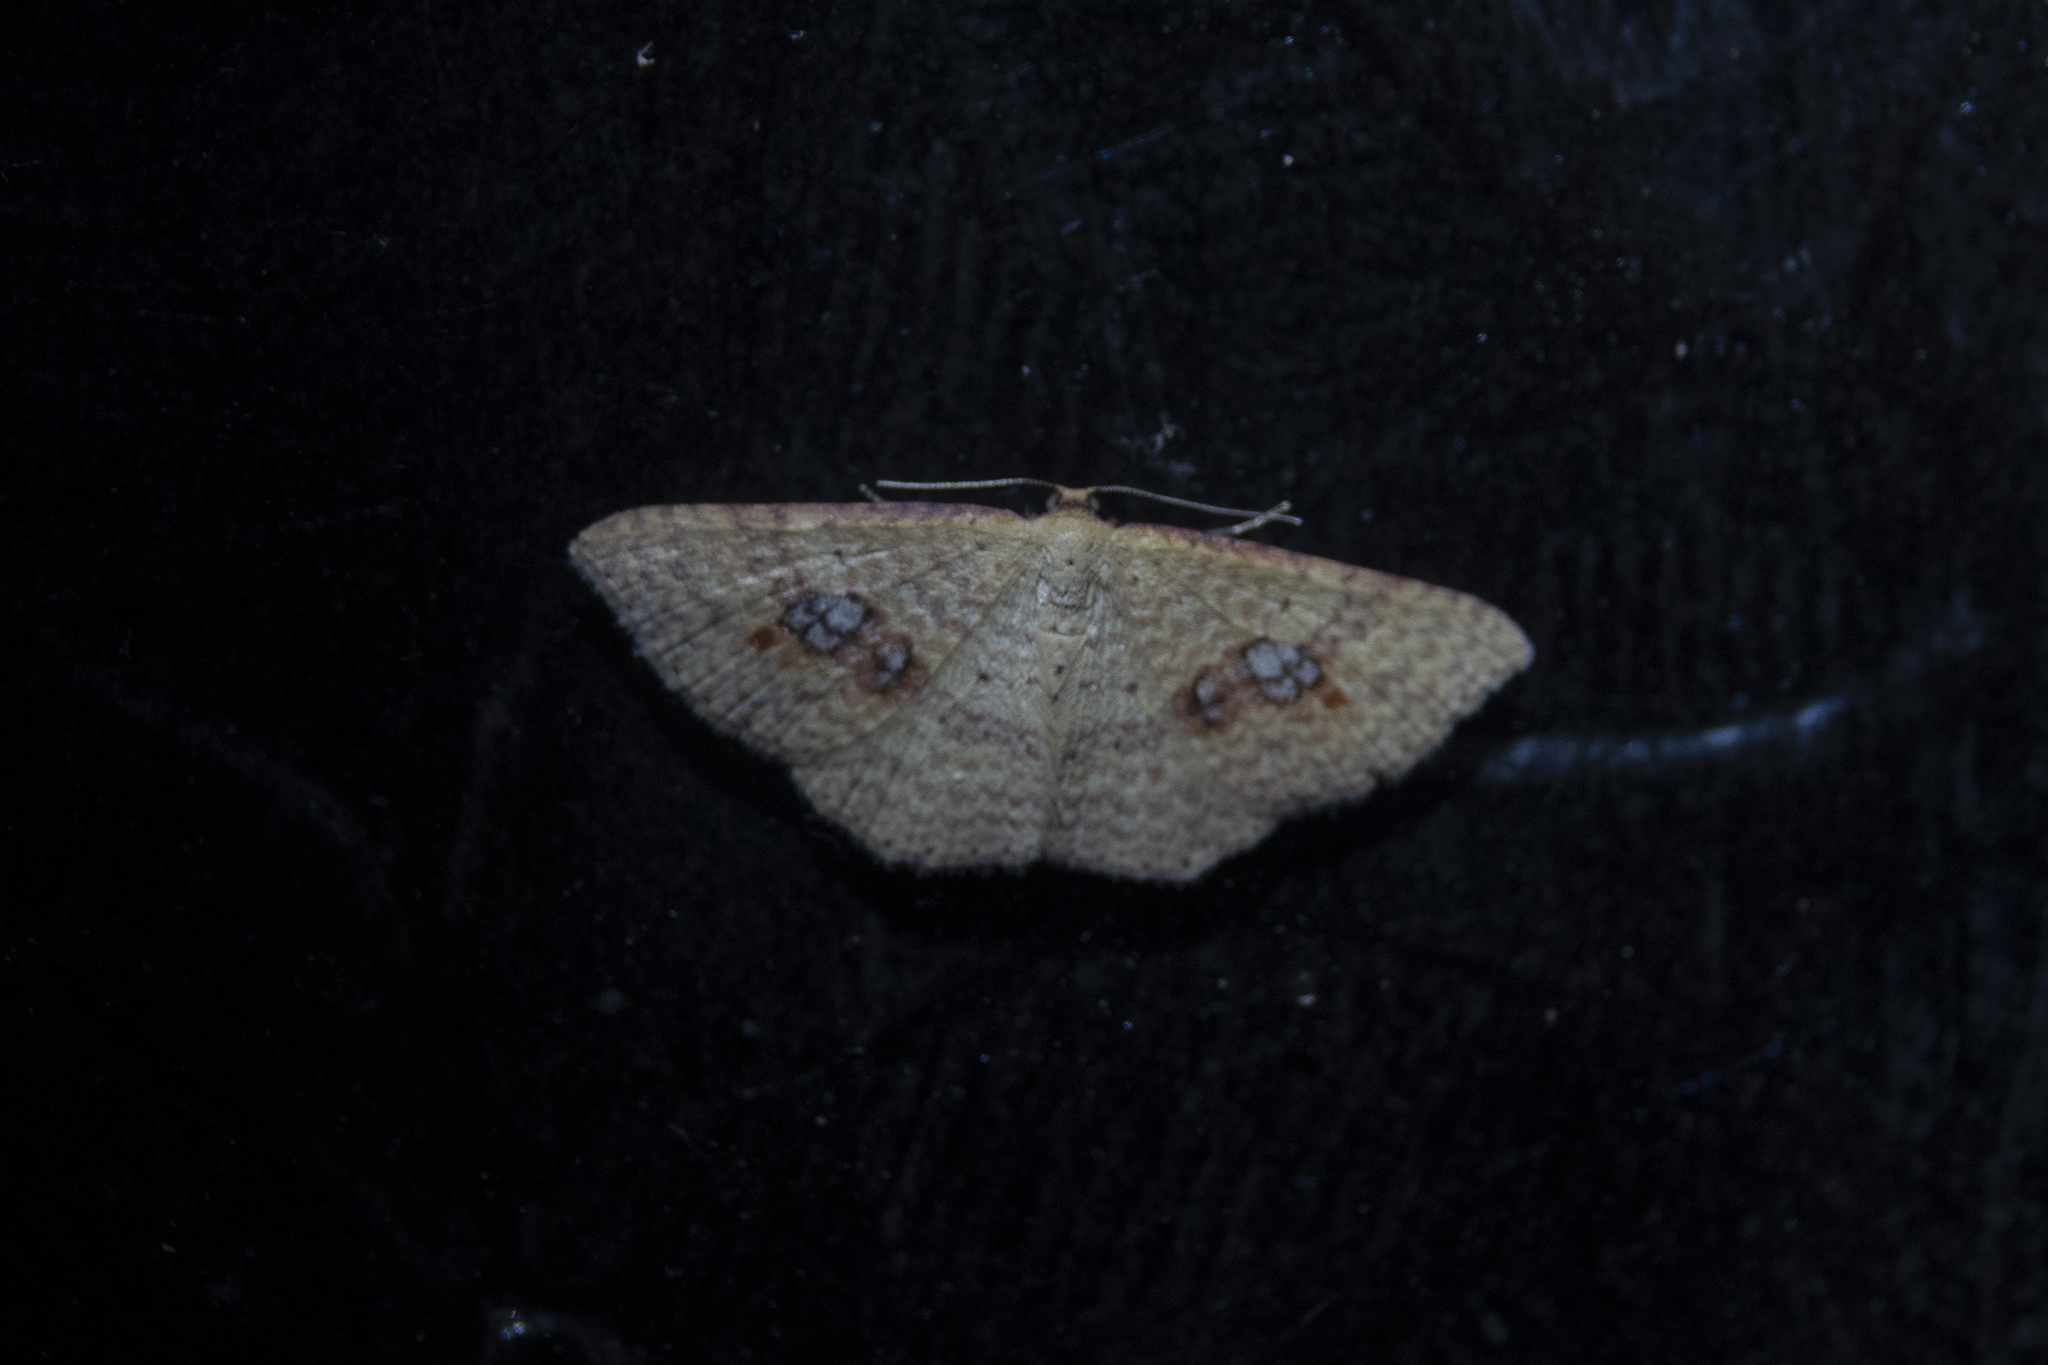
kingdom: Animalia
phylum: Arthropoda
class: Insecta
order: Lepidoptera
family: Geometridae
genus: Epicyme
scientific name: Epicyme rubropunctaria
